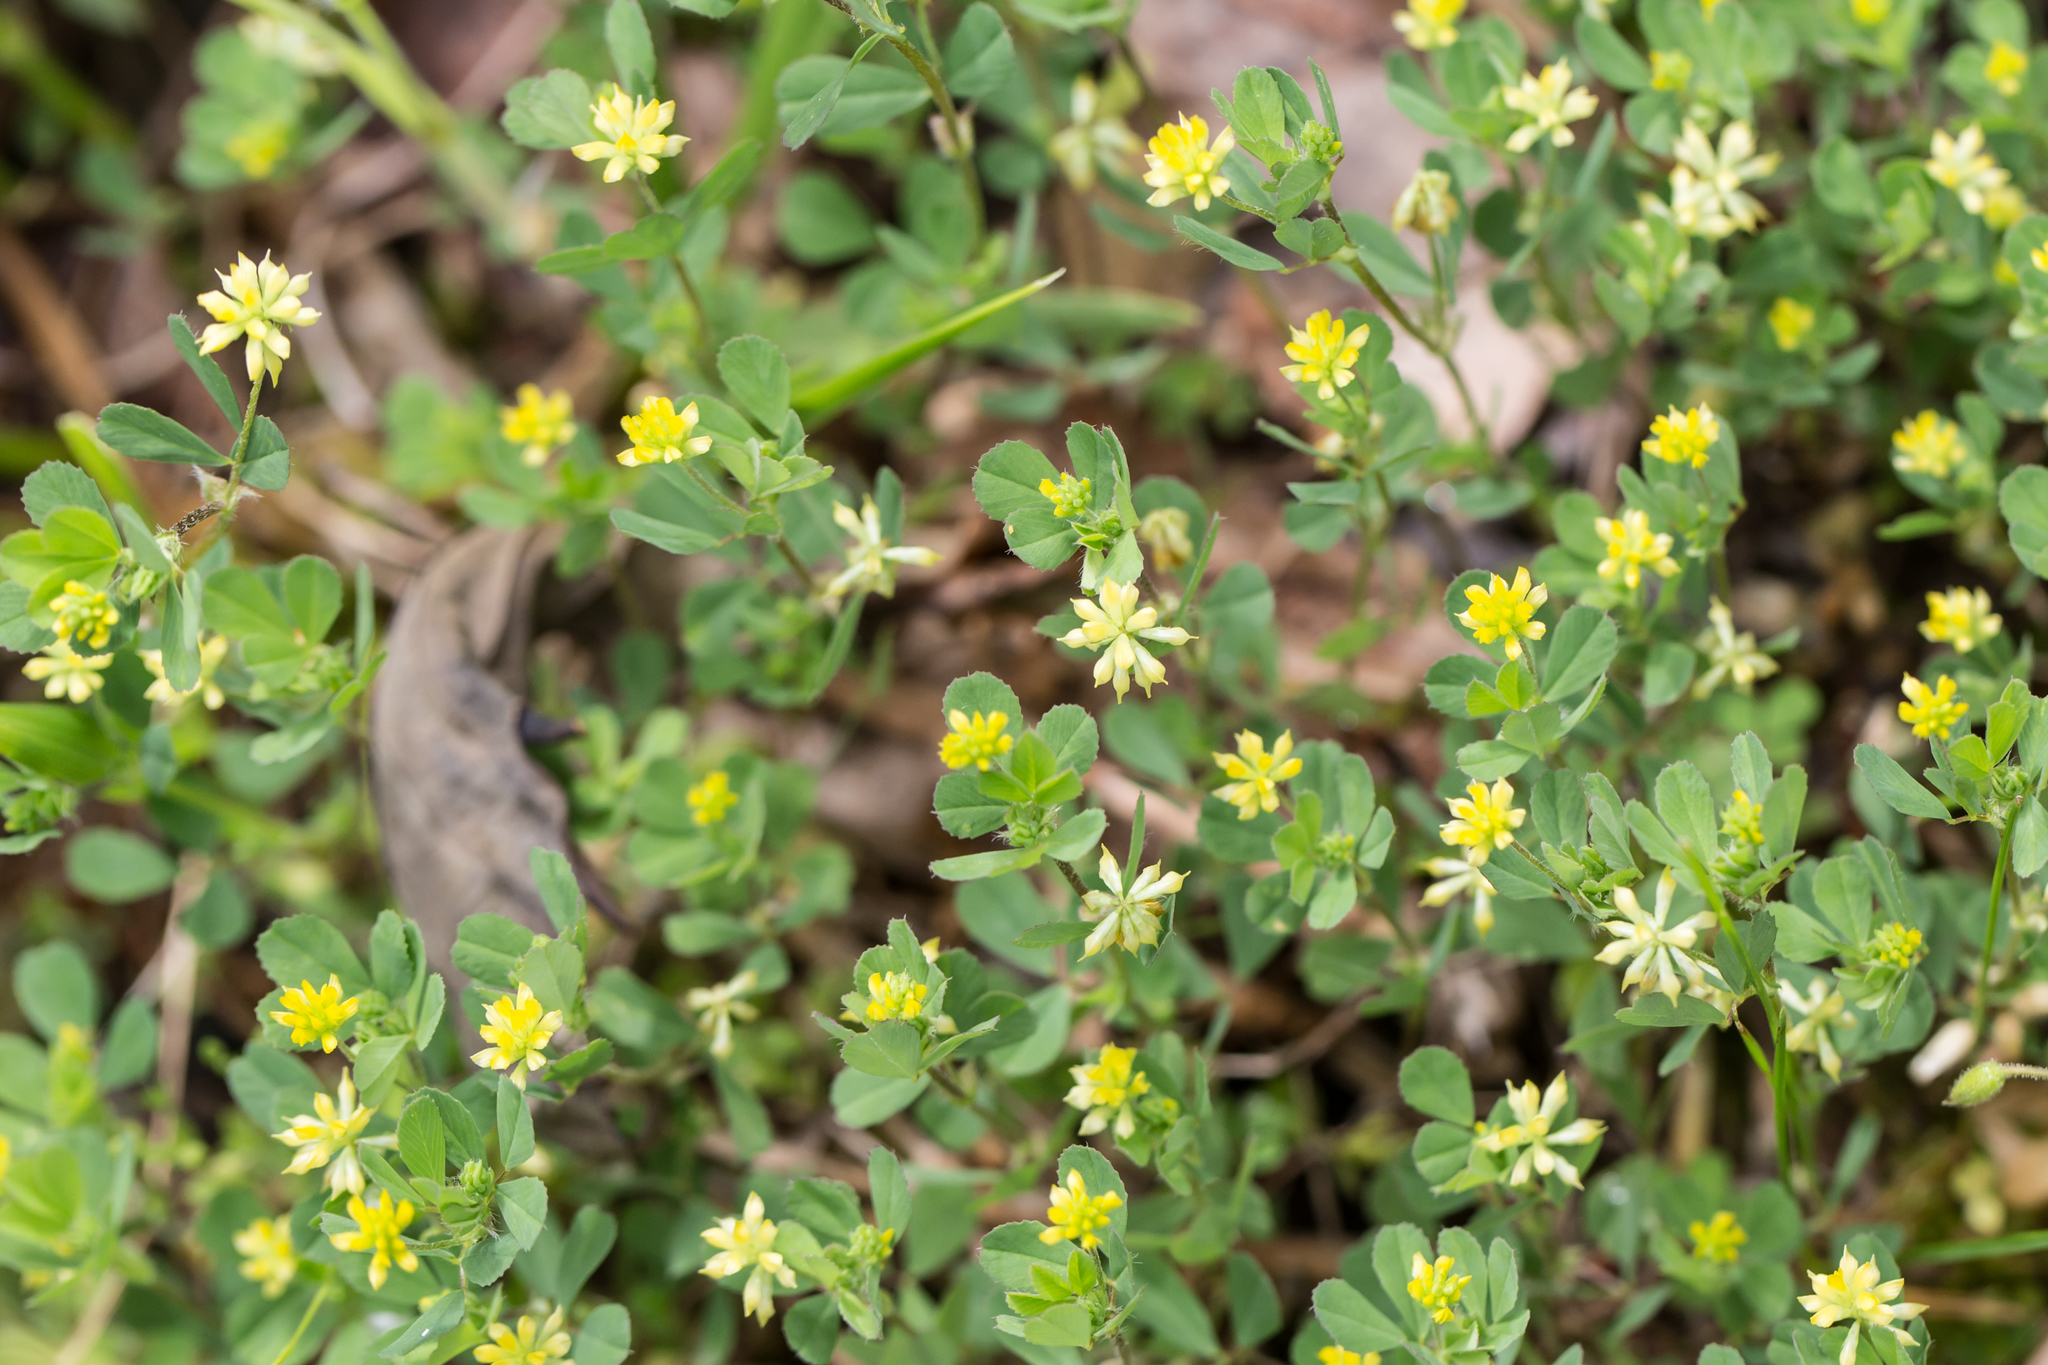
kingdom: Plantae
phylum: Tracheophyta
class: Magnoliopsida
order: Fabales
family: Fabaceae
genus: Trifolium
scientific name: Trifolium dubium
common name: Suckling clover
